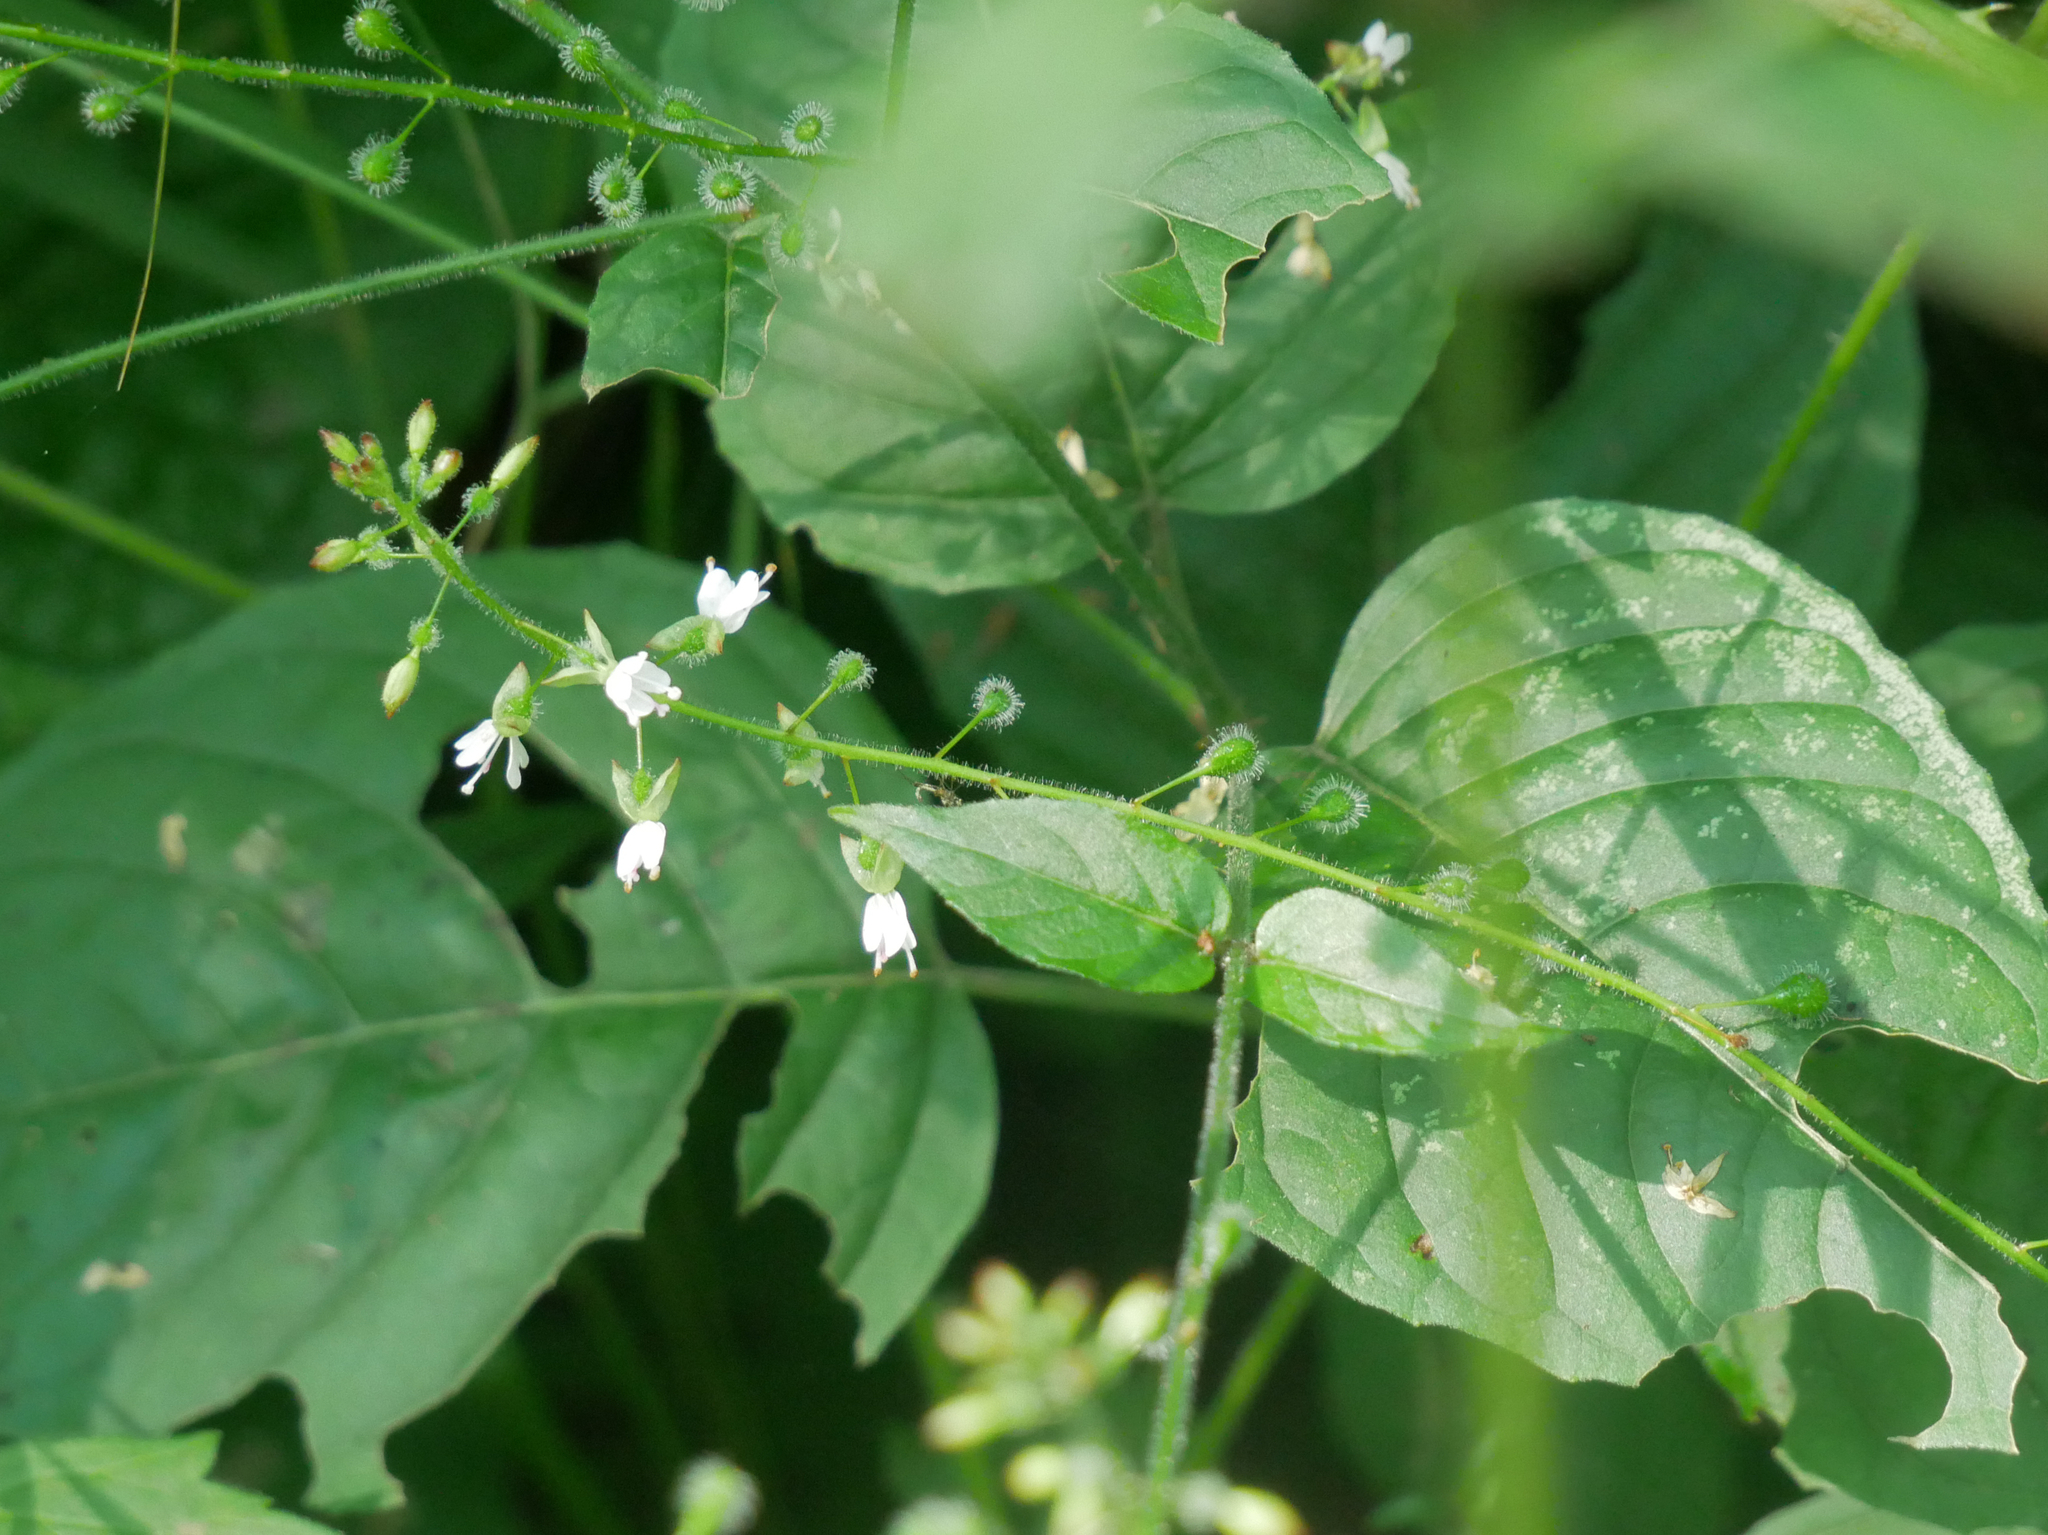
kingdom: Plantae
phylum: Tracheophyta
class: Magnoliopsida
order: Myrtales
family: Onagraceae
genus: Circaea
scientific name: Circaea lutetiana
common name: Enchanter's-nightshade
